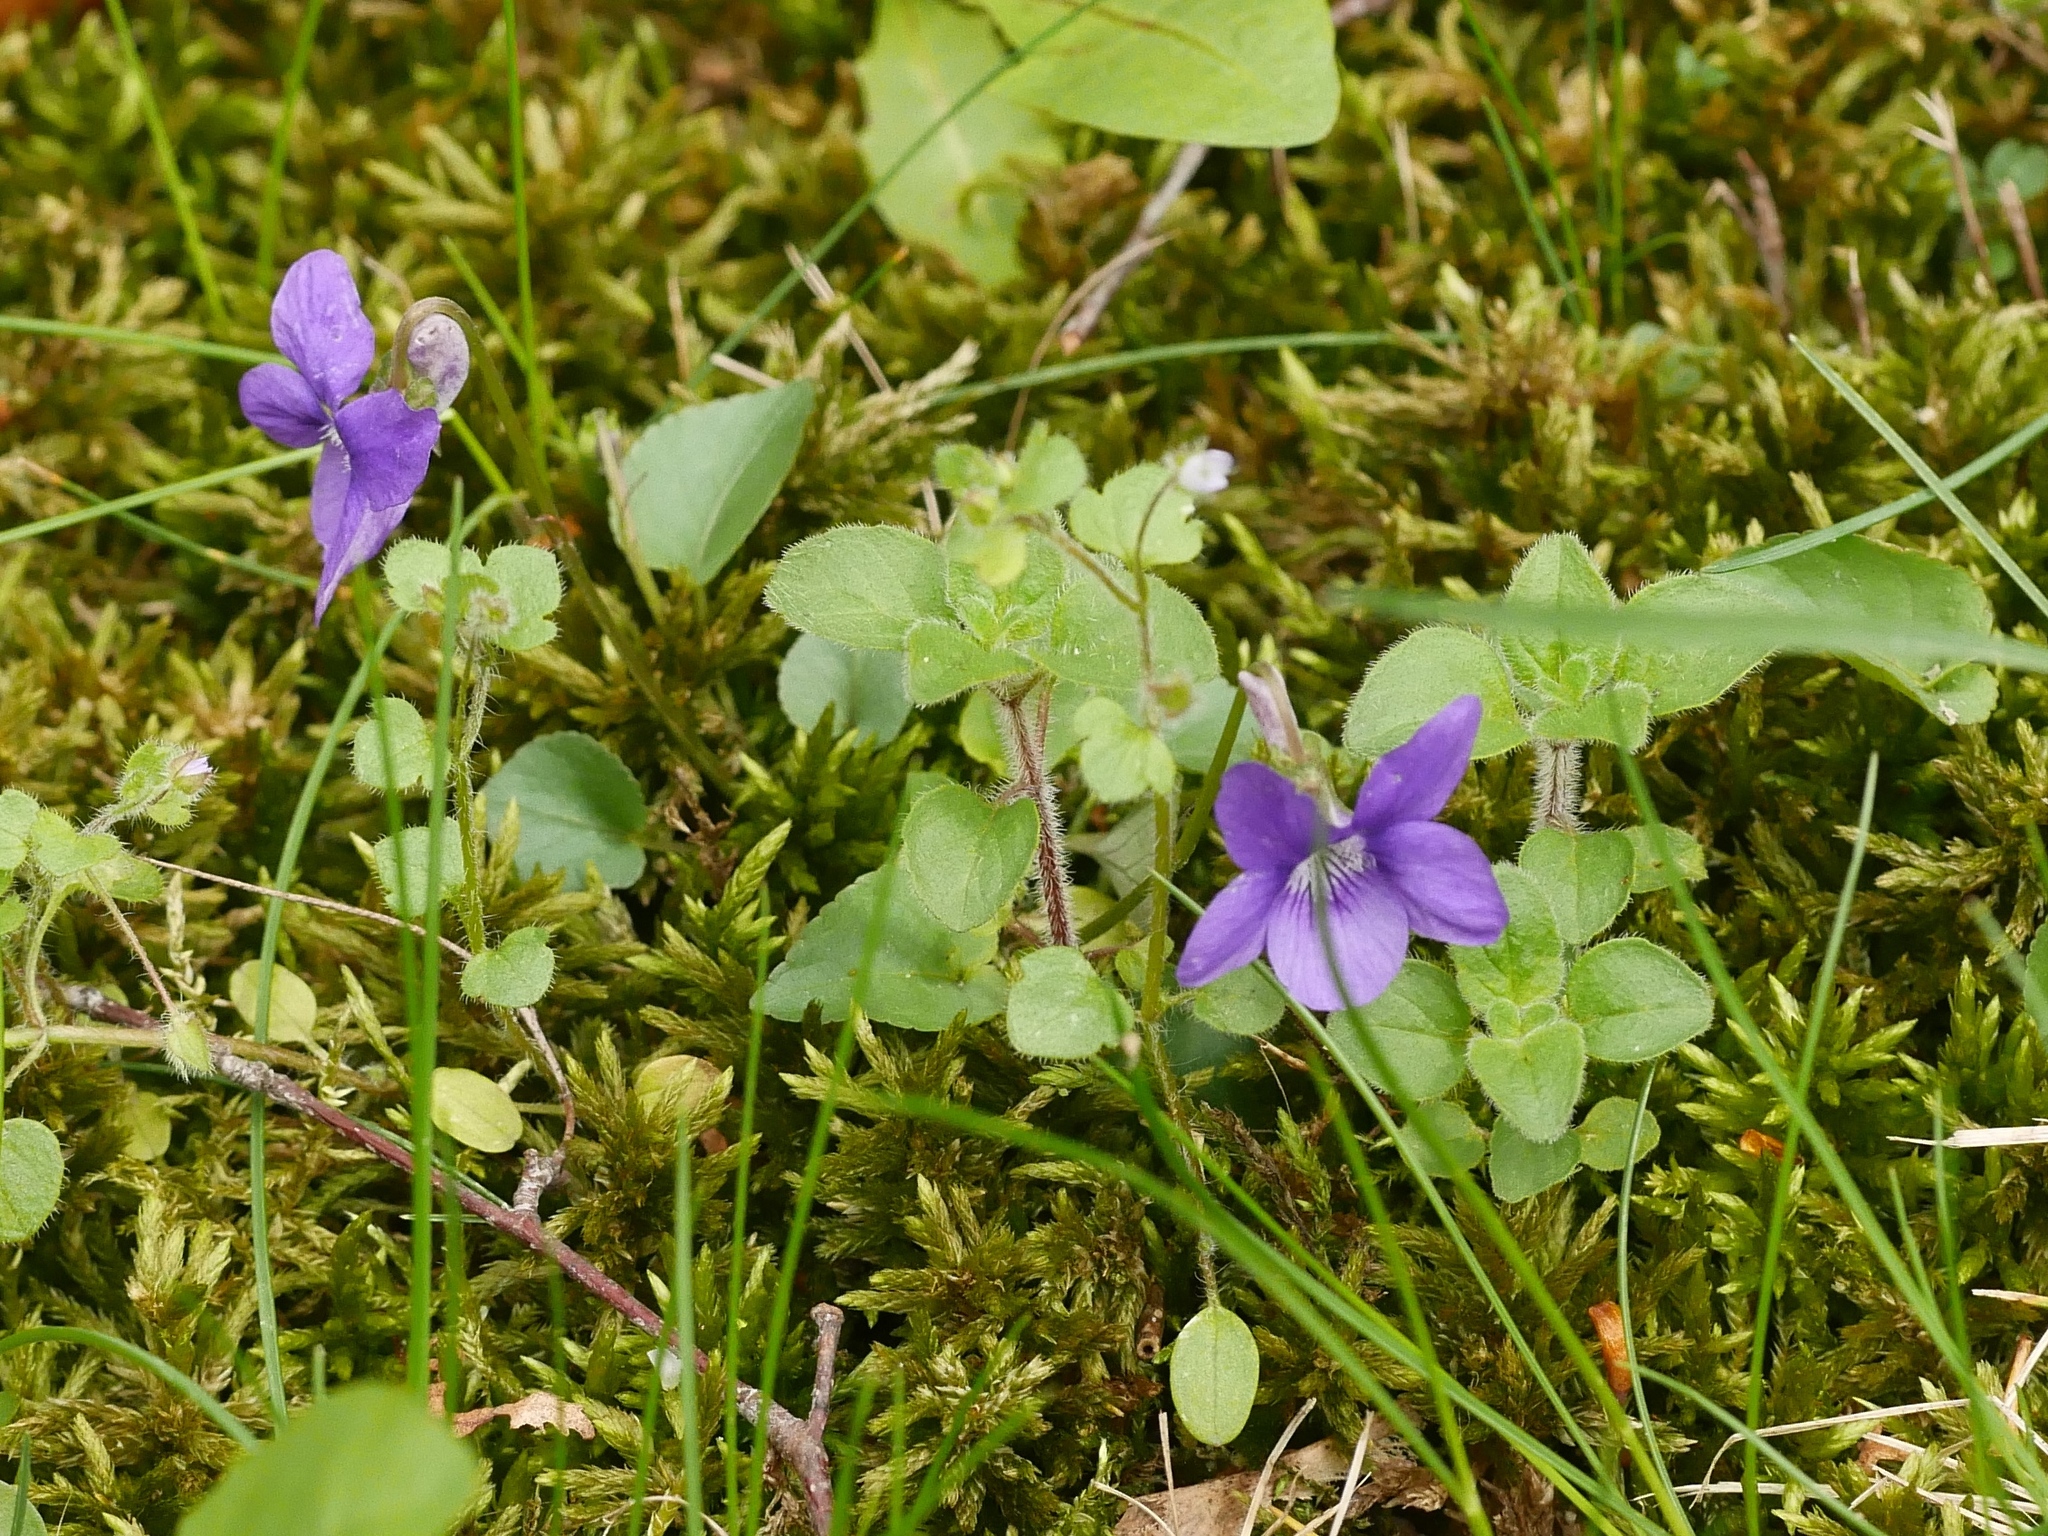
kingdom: Plantae
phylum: Tracheophyta
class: Magnoliopsida
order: Malpighiales
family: Violaceae
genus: Viola
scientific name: Viola riviniana
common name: Common dog-violet
